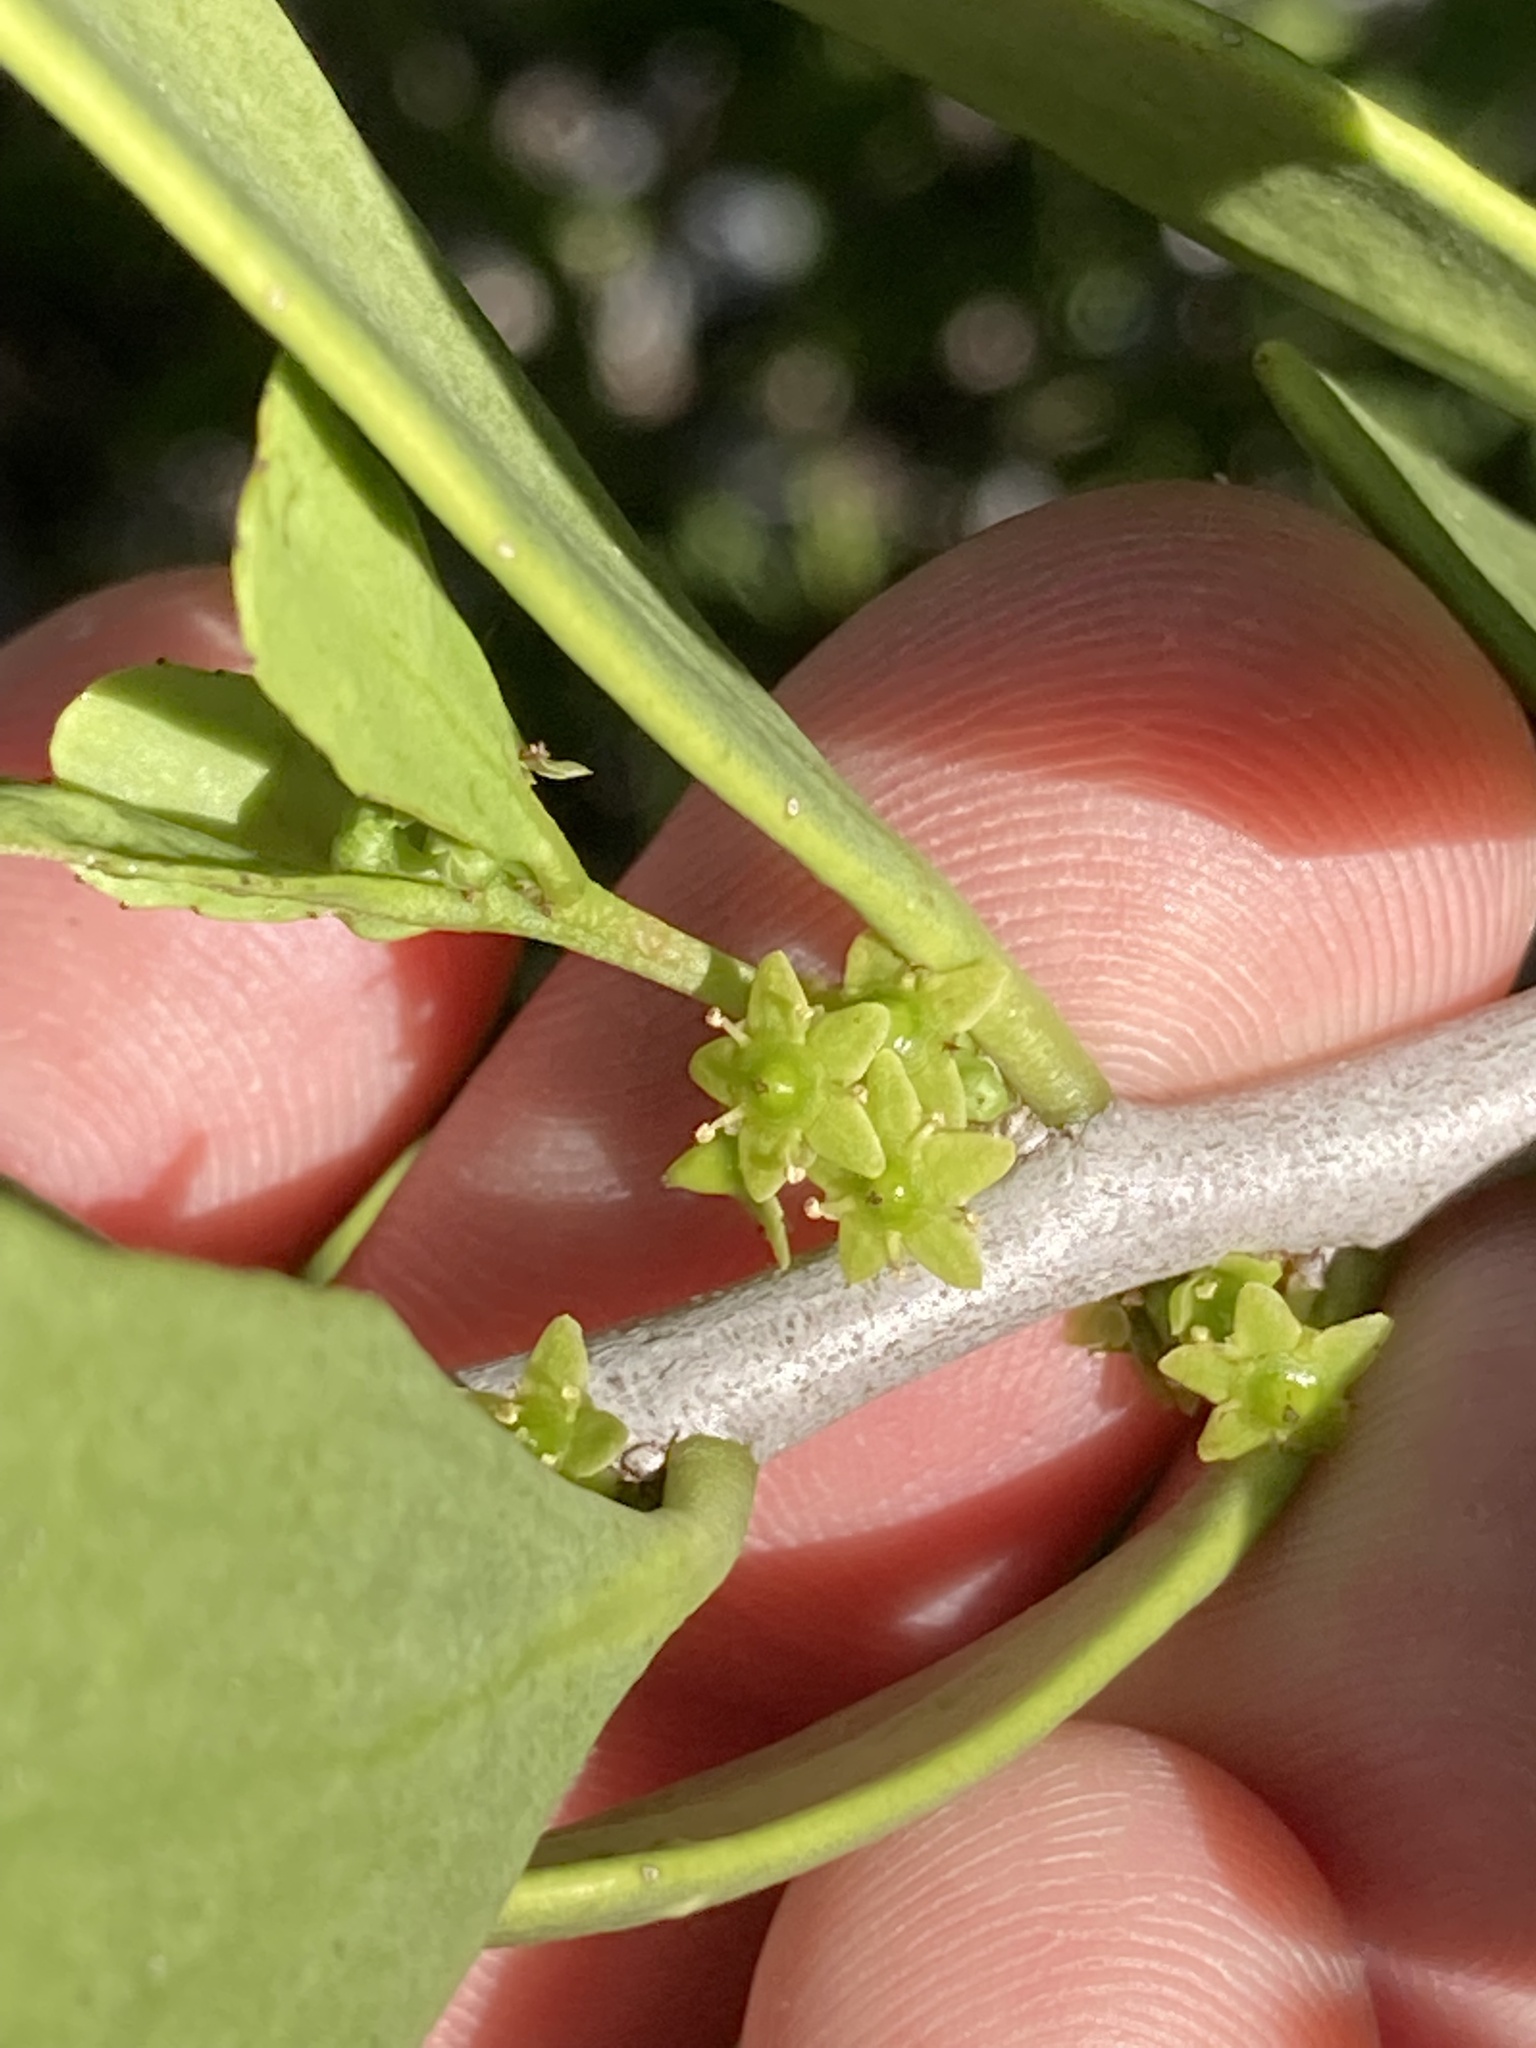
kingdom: Plantae
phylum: Tracheophyta
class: Magnoliopsida
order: Celastrales
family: Celastraceae
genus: Tricerma
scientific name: Tricerma phyllanthoides
